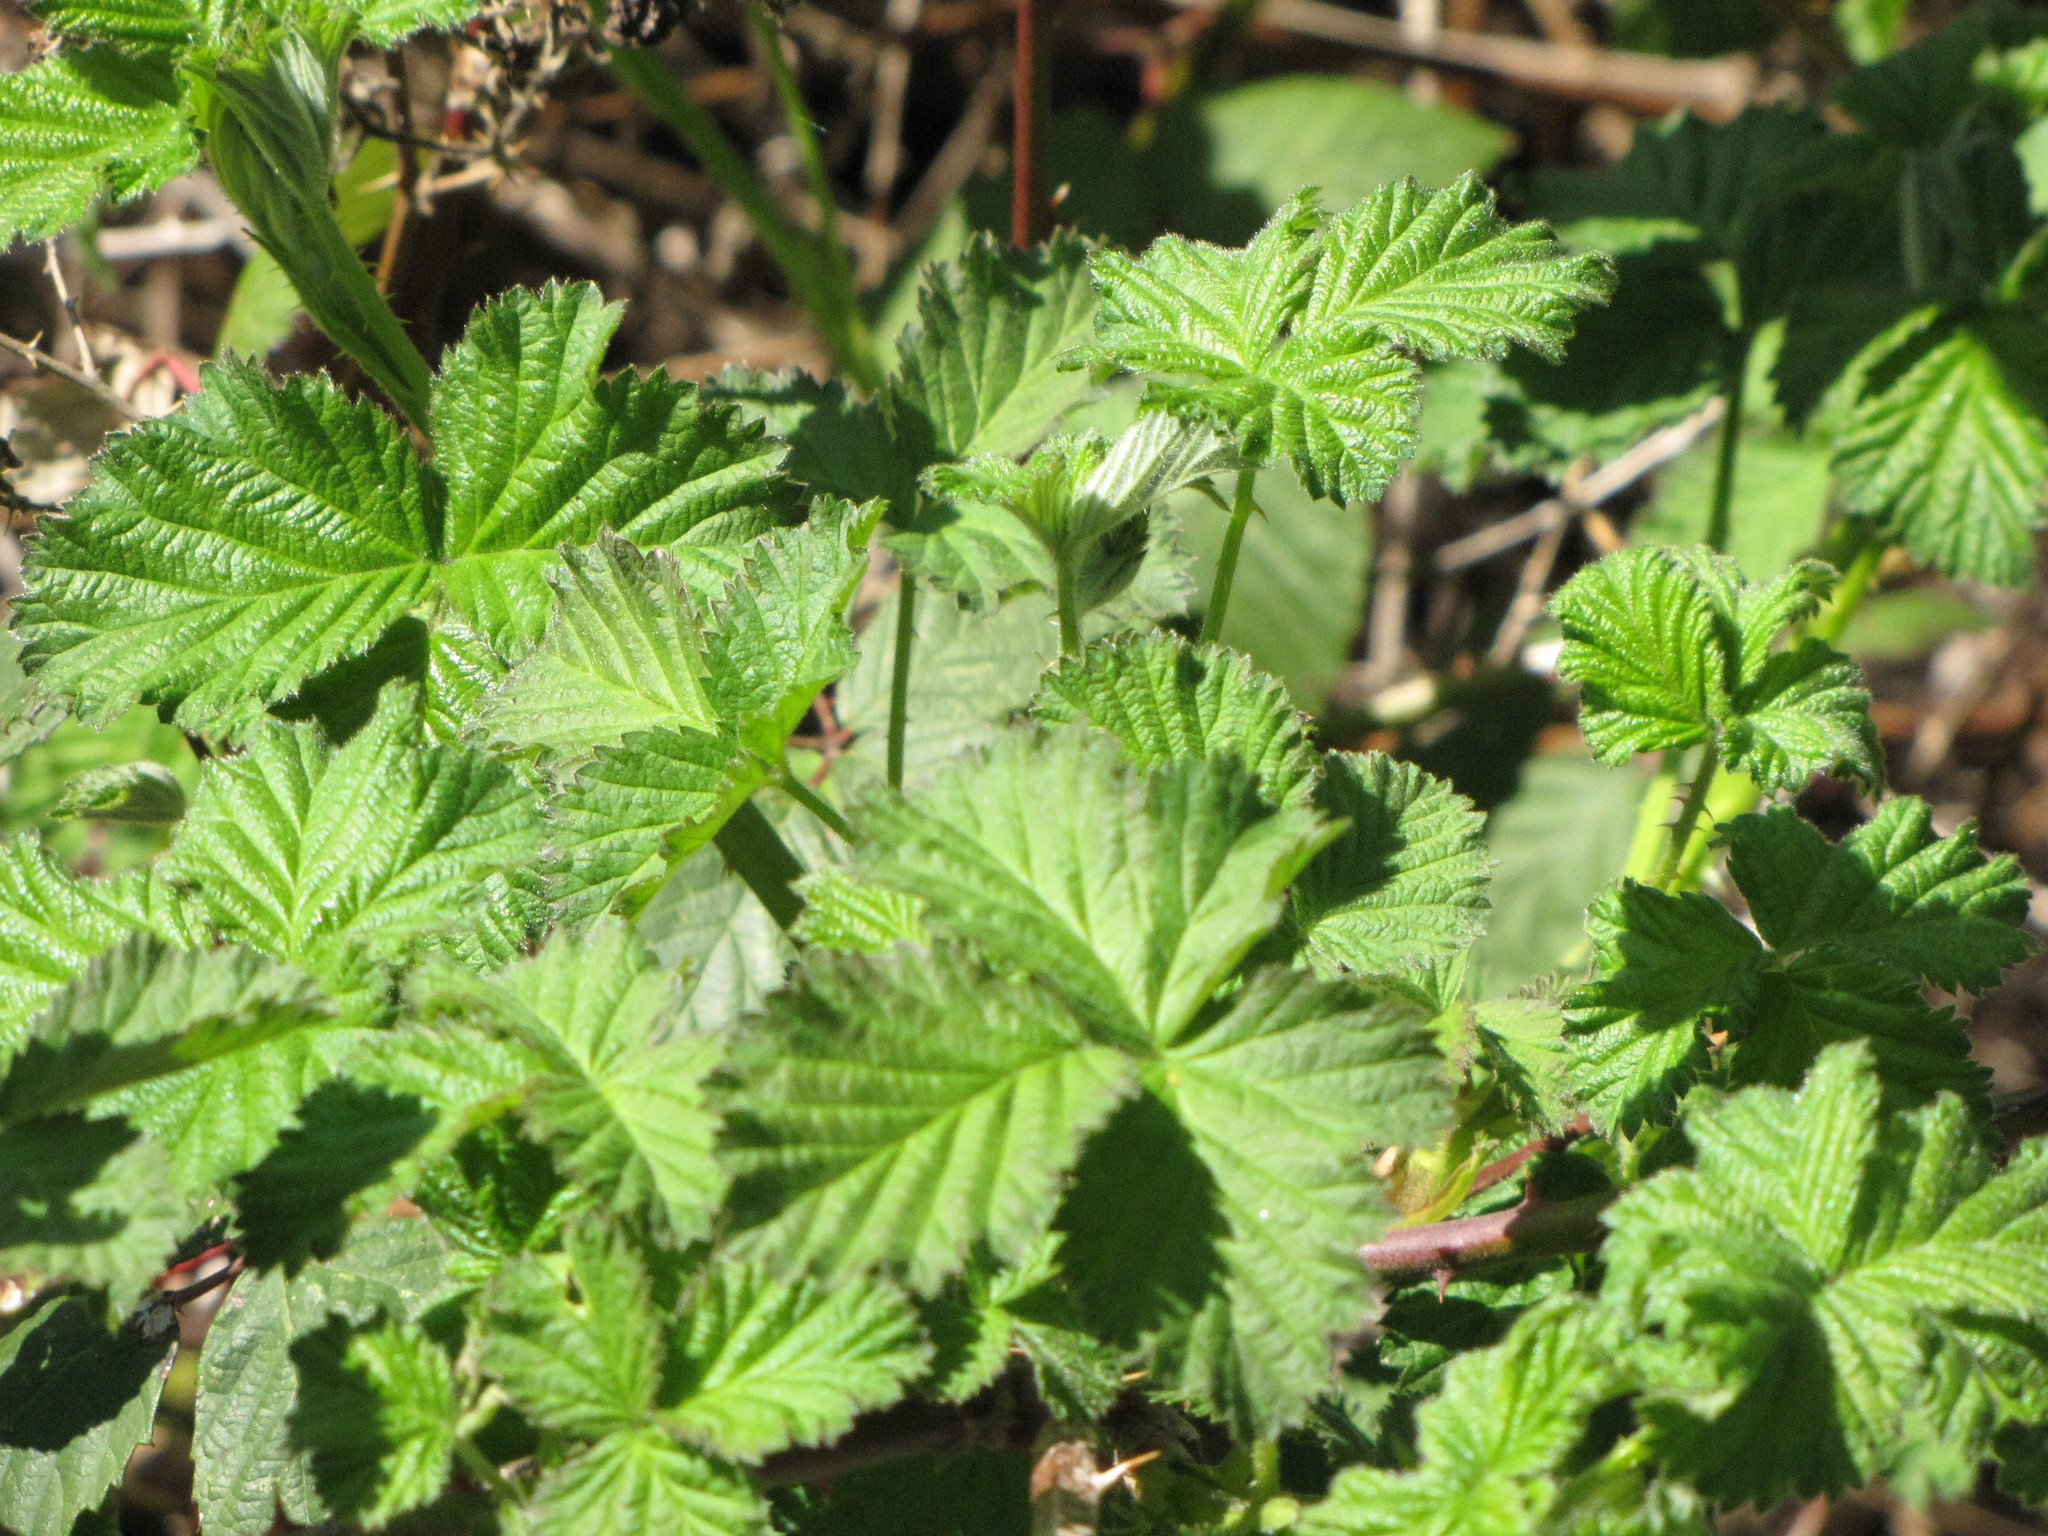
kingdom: Plantae
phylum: Tracheophyta
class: Magnoliopsida
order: Rosales
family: Rosaceae
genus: Rubus
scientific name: Rubus armeniacus
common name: Himalayan blackberry
